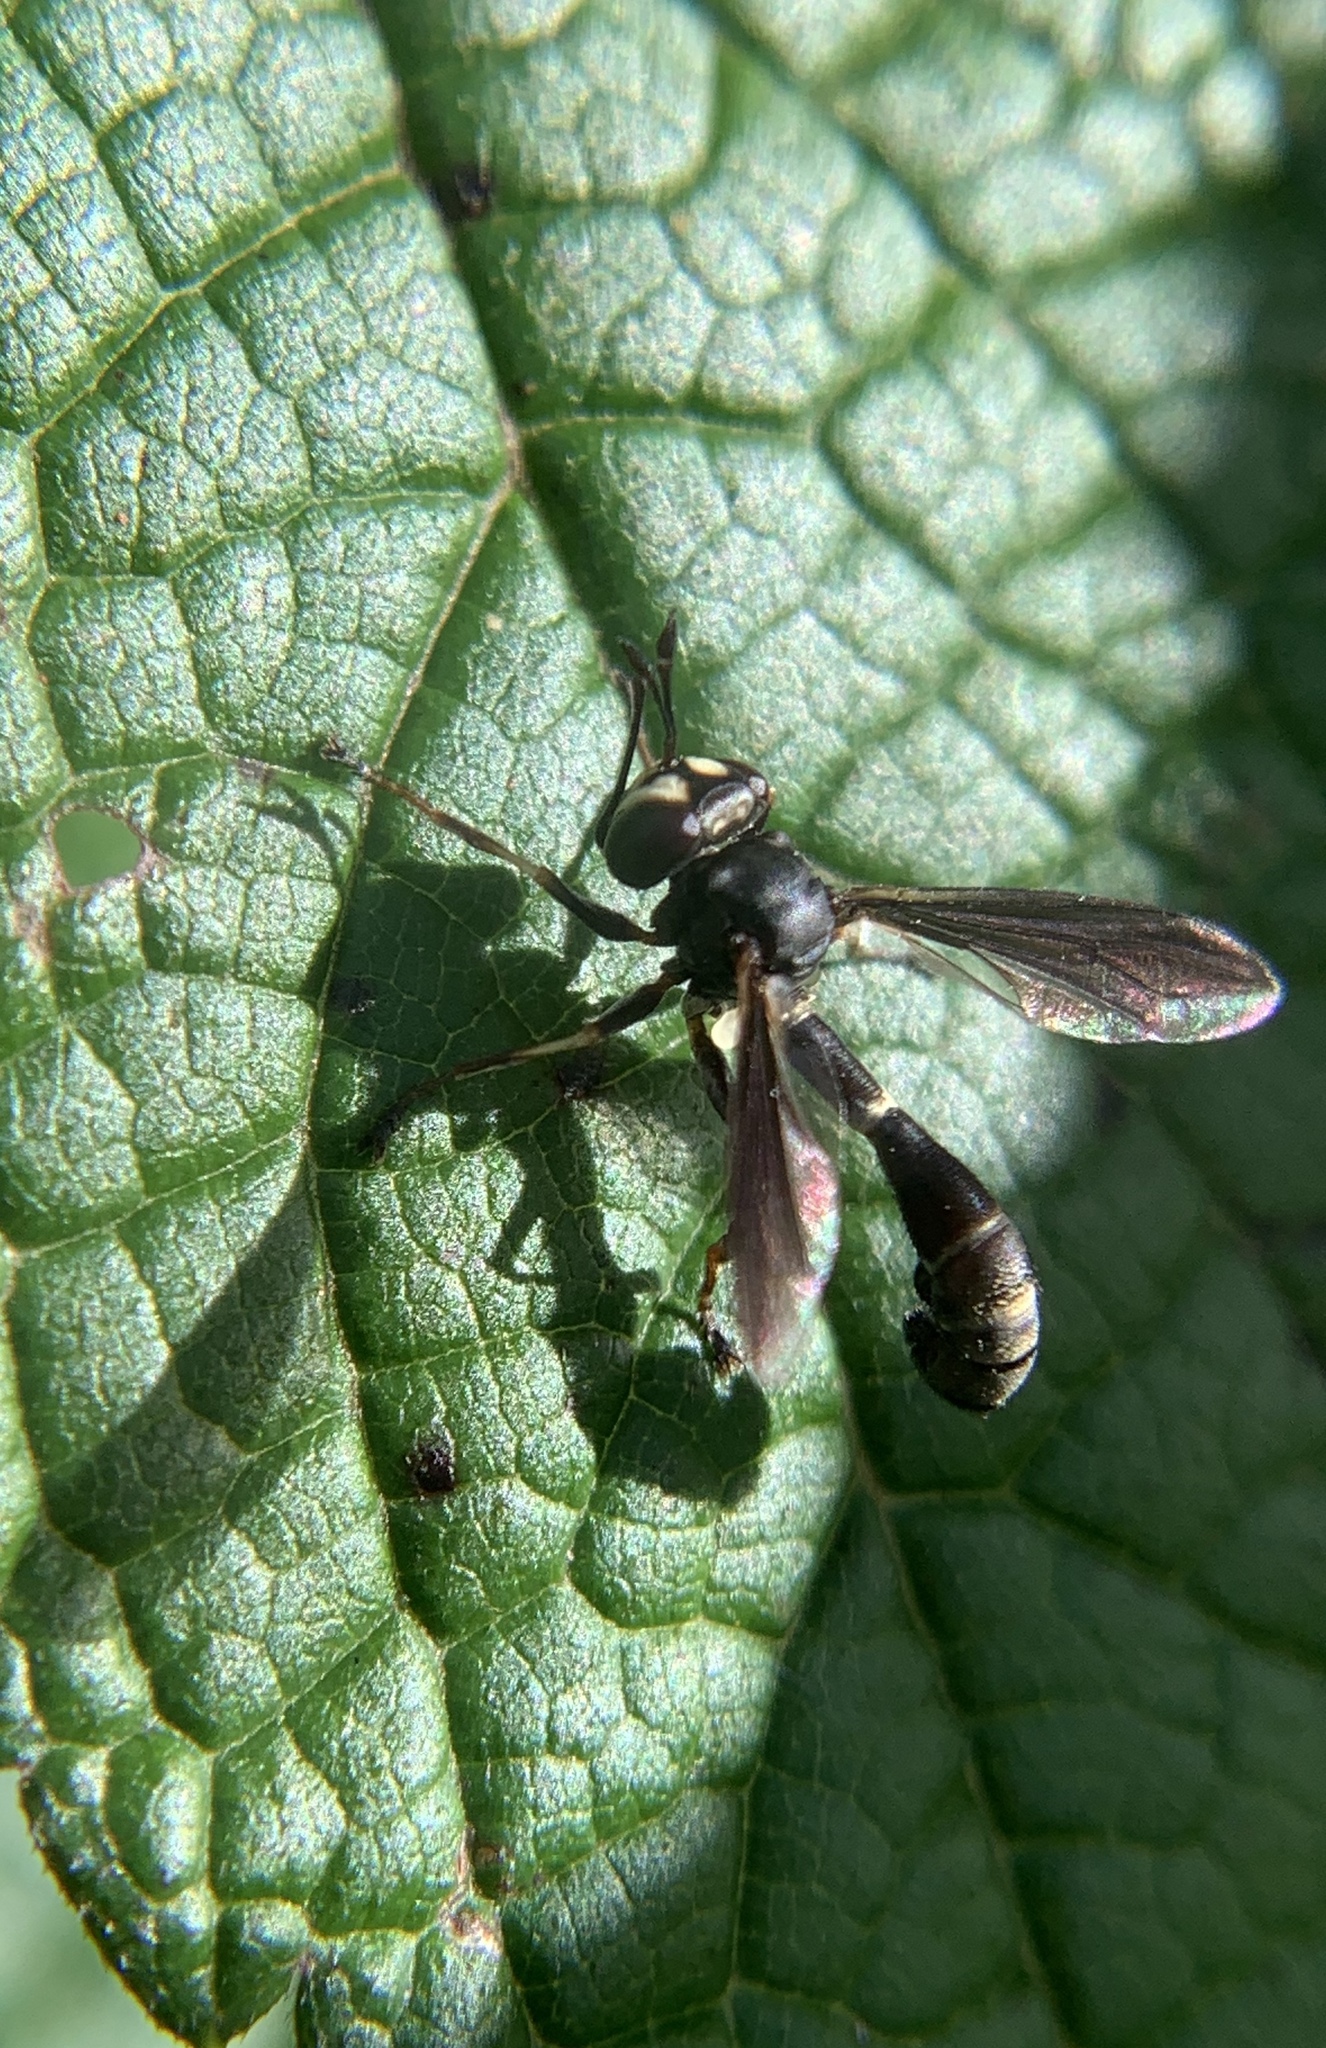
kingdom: Animalia
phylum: Arthropoda
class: Insecta
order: Diptera
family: Conopidae
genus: Physocephala
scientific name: Physocephala tibialis
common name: Common eastern physocephala
